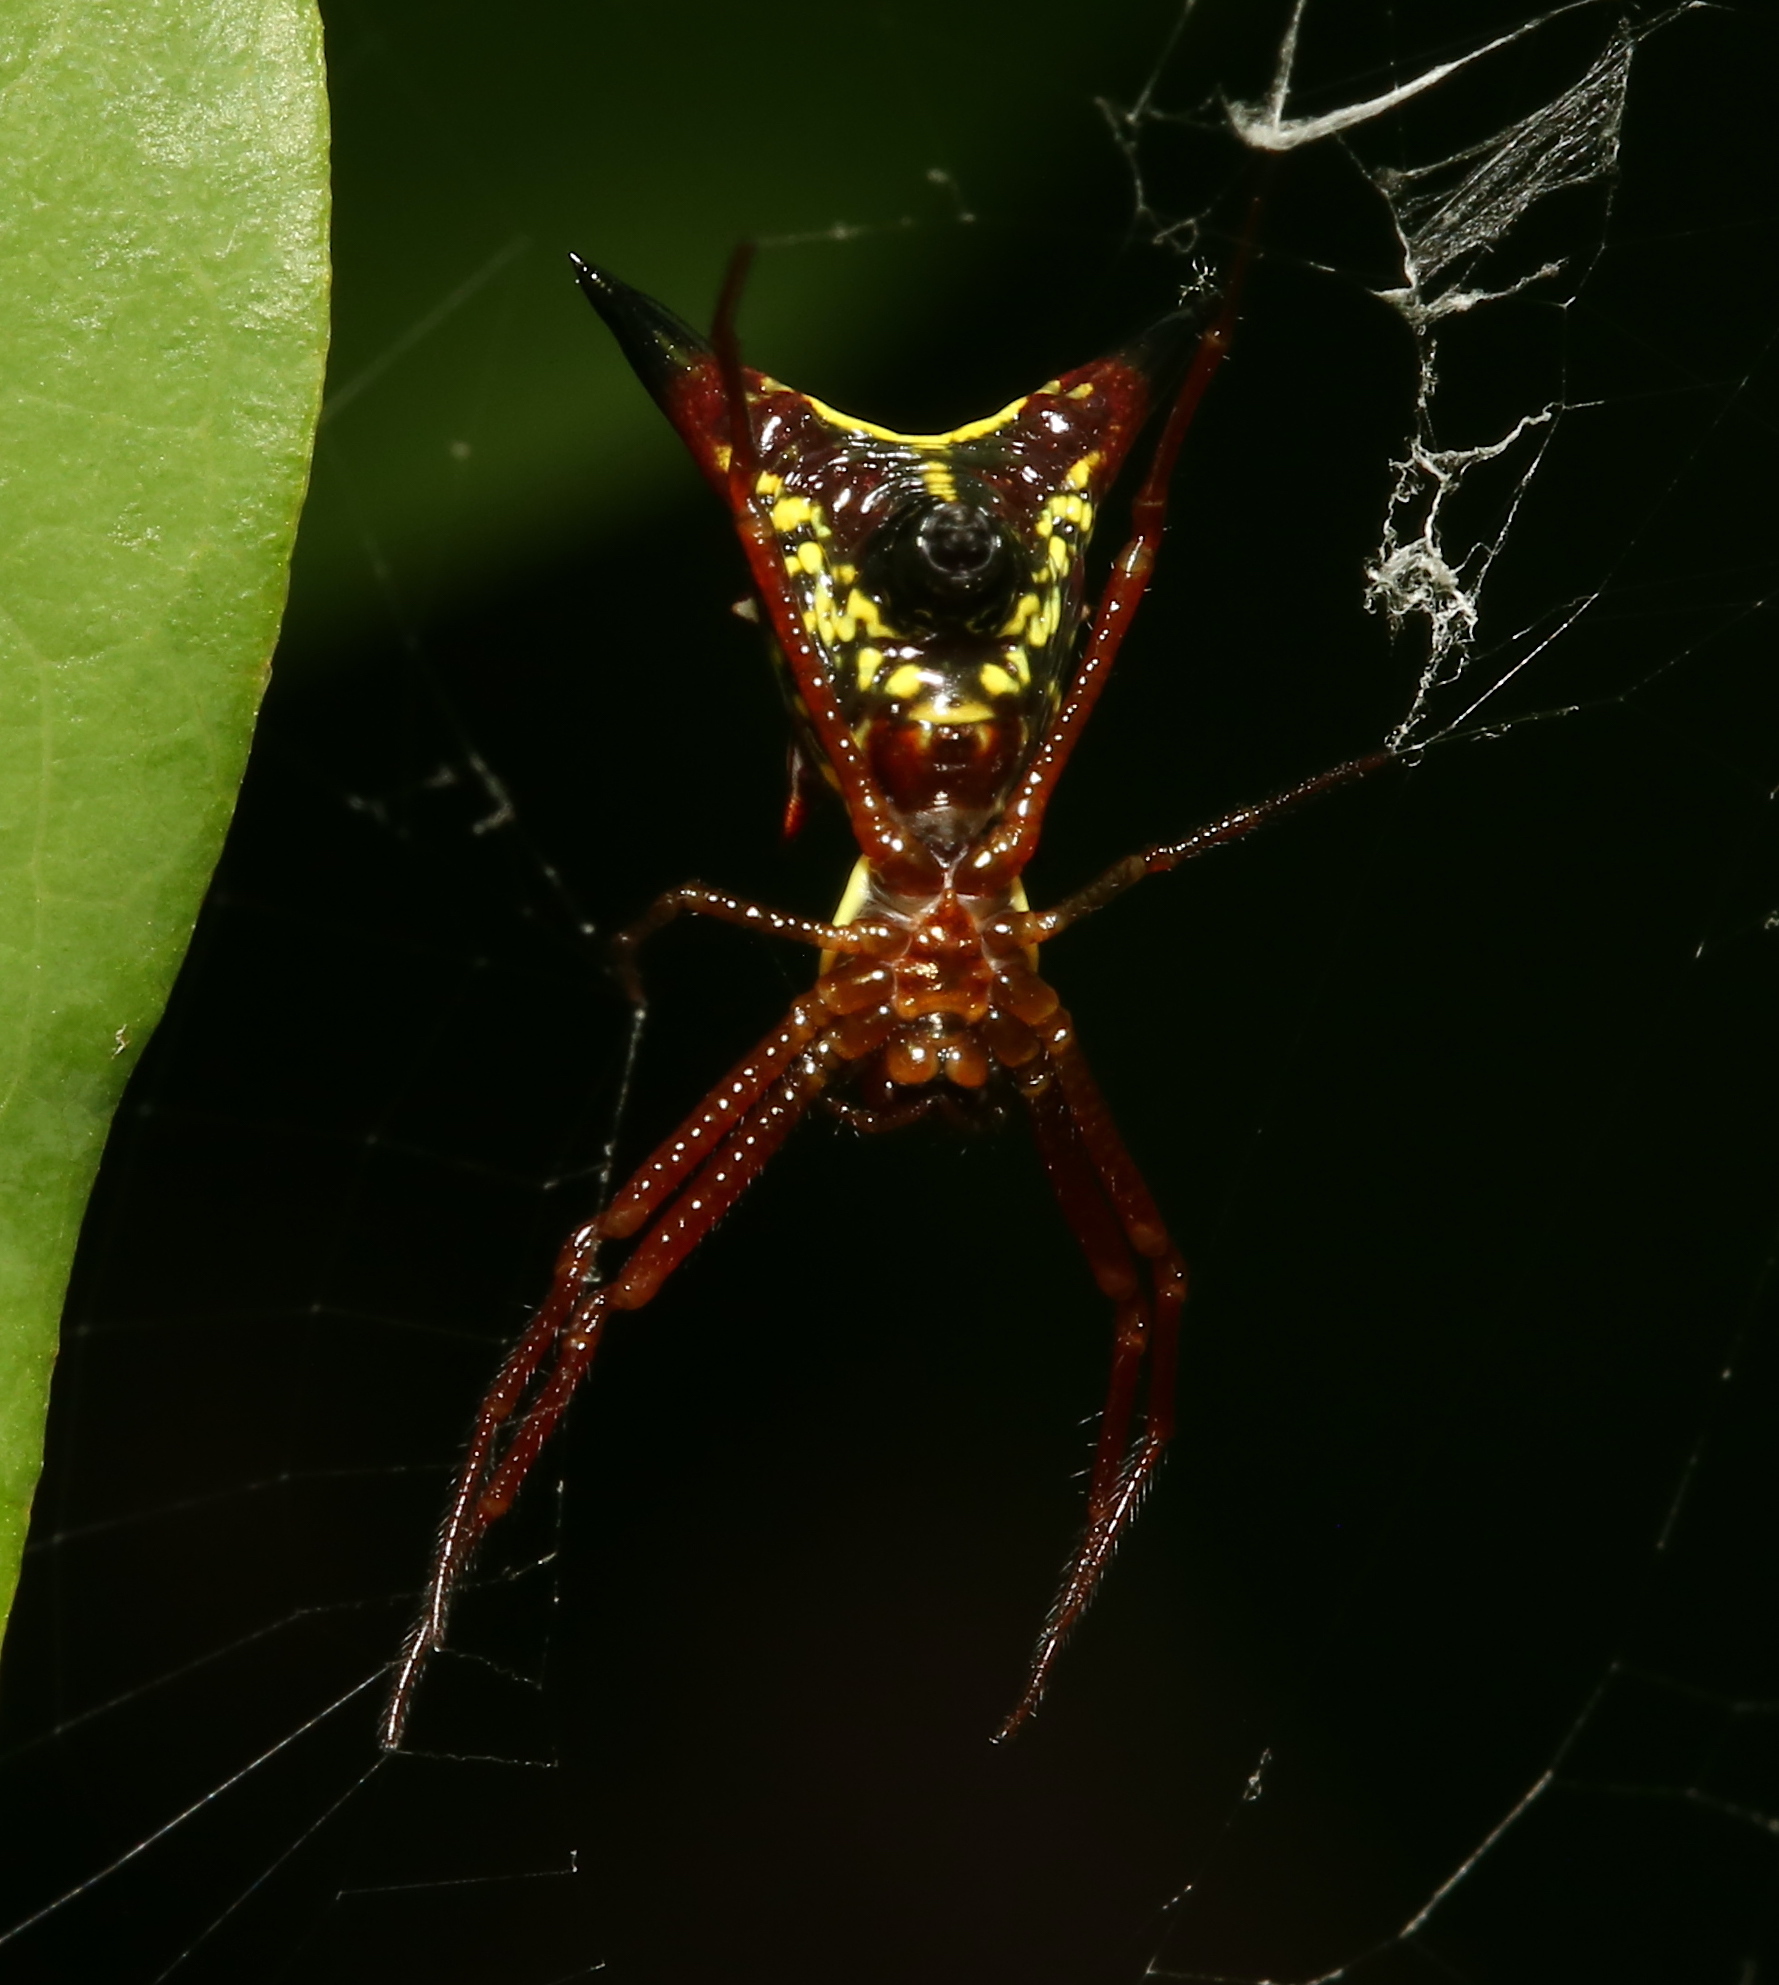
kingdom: Animalia
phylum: Arthropoda
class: Arachnida
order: Araneae
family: Araneidae
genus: Micrathena
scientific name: Micrathena sagittata
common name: Orb weavers
